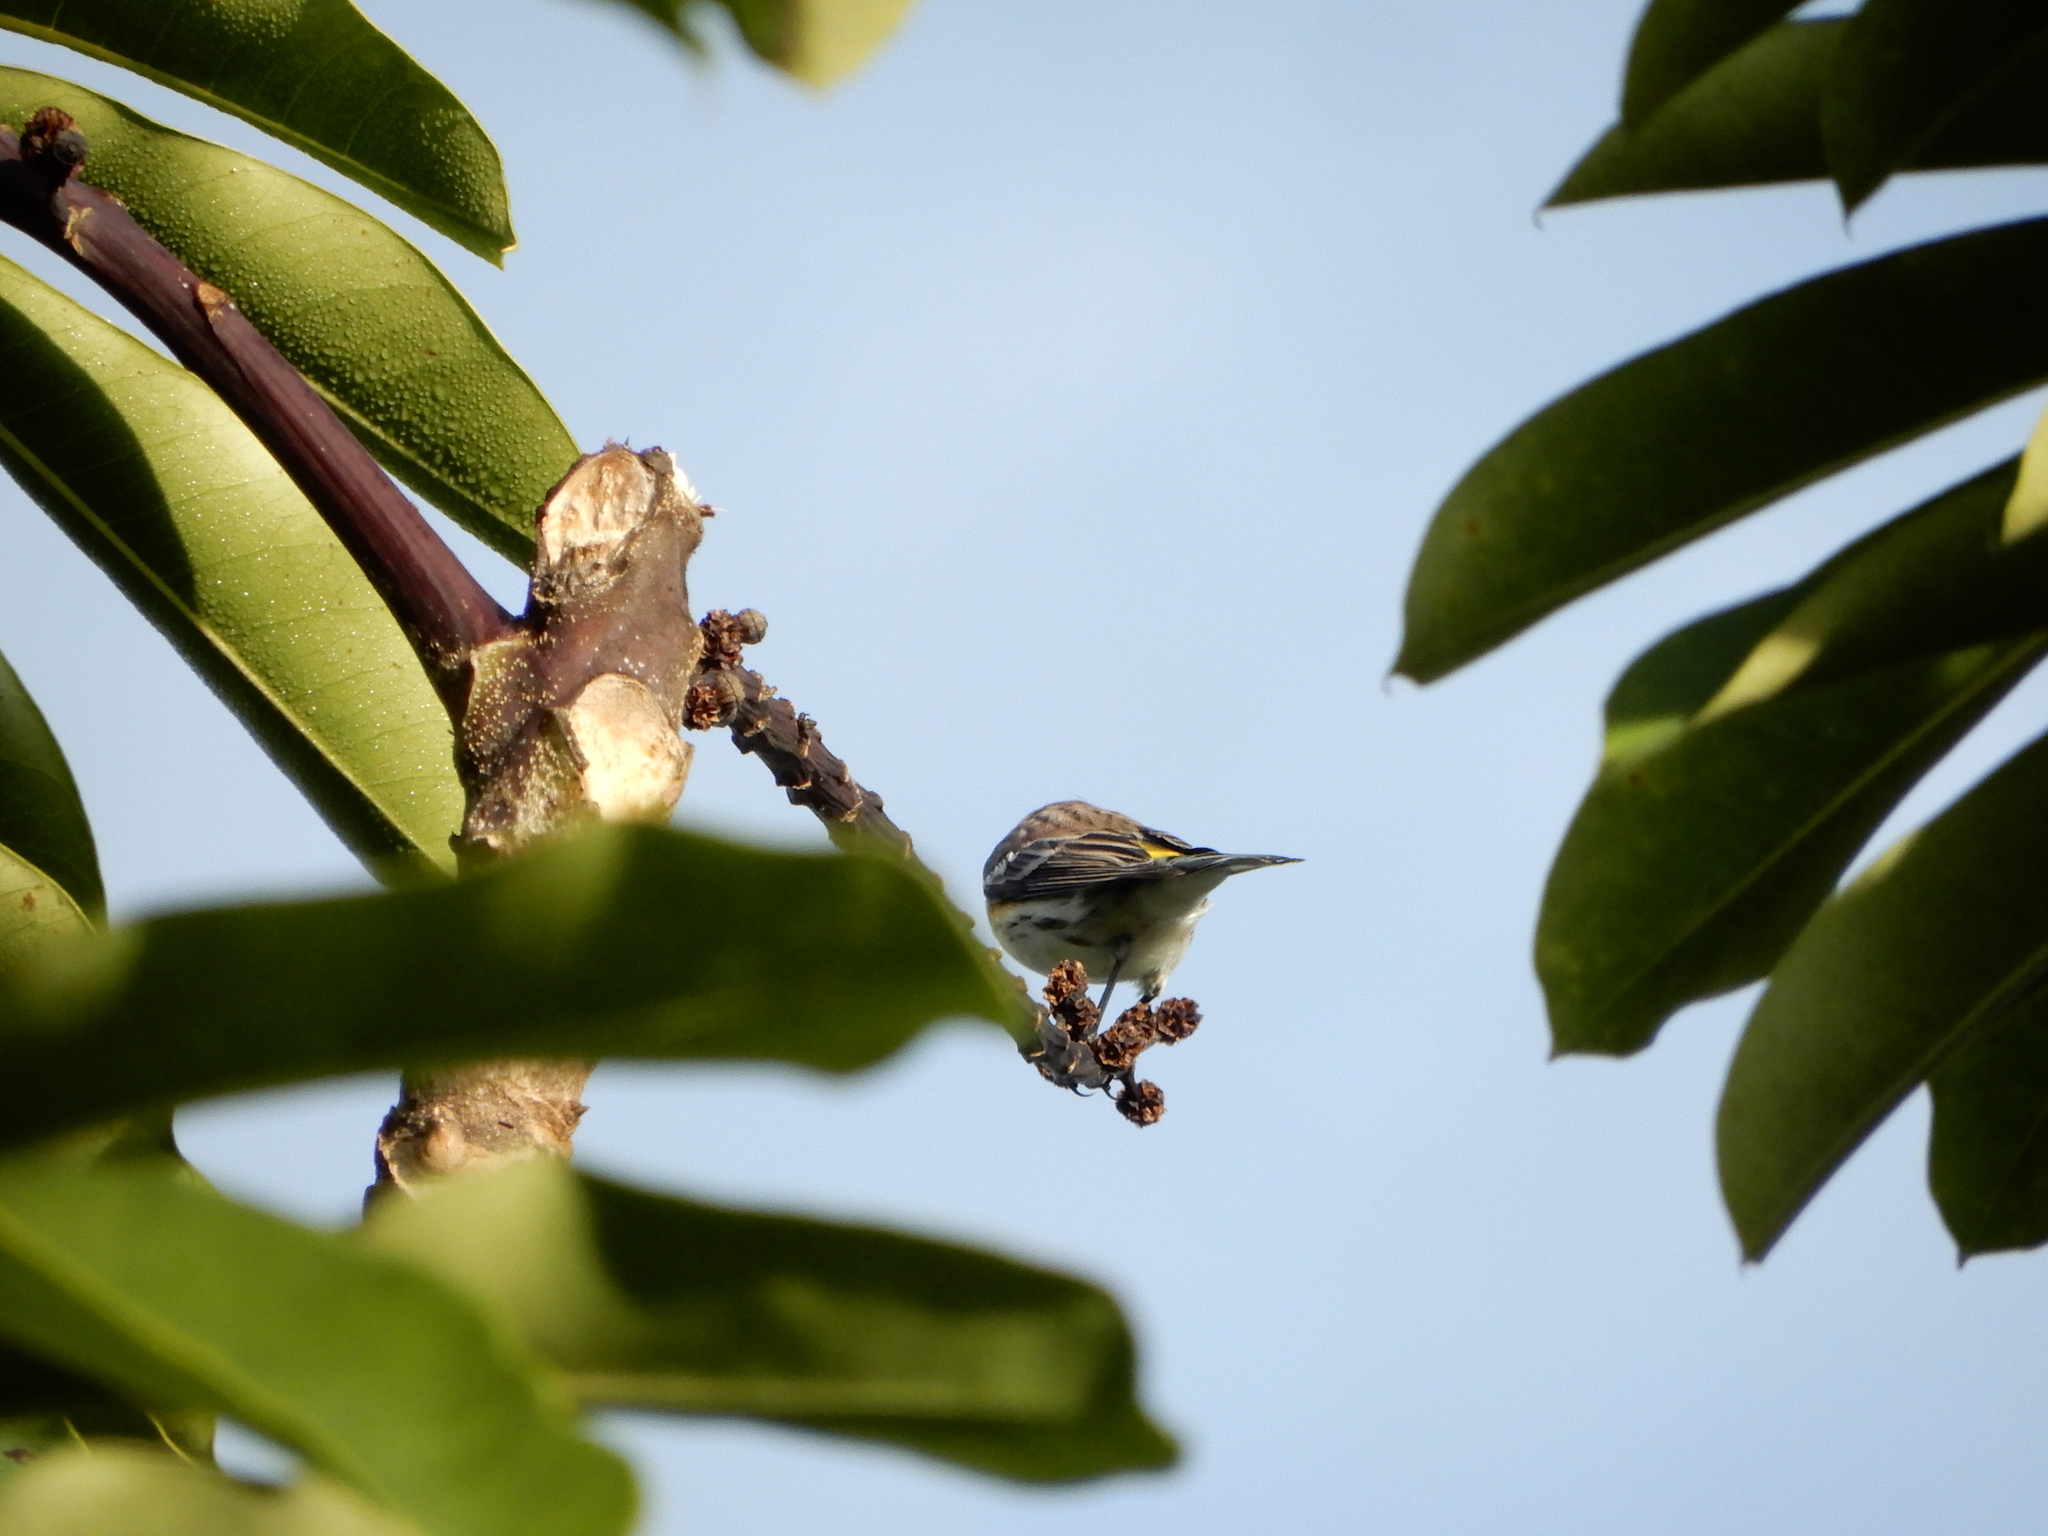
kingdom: Animalia
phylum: Chordata
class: Aves
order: Passeriformes
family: Parulidae
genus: Setophaga
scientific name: Setophaga coronata
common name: Myrtle warbler
